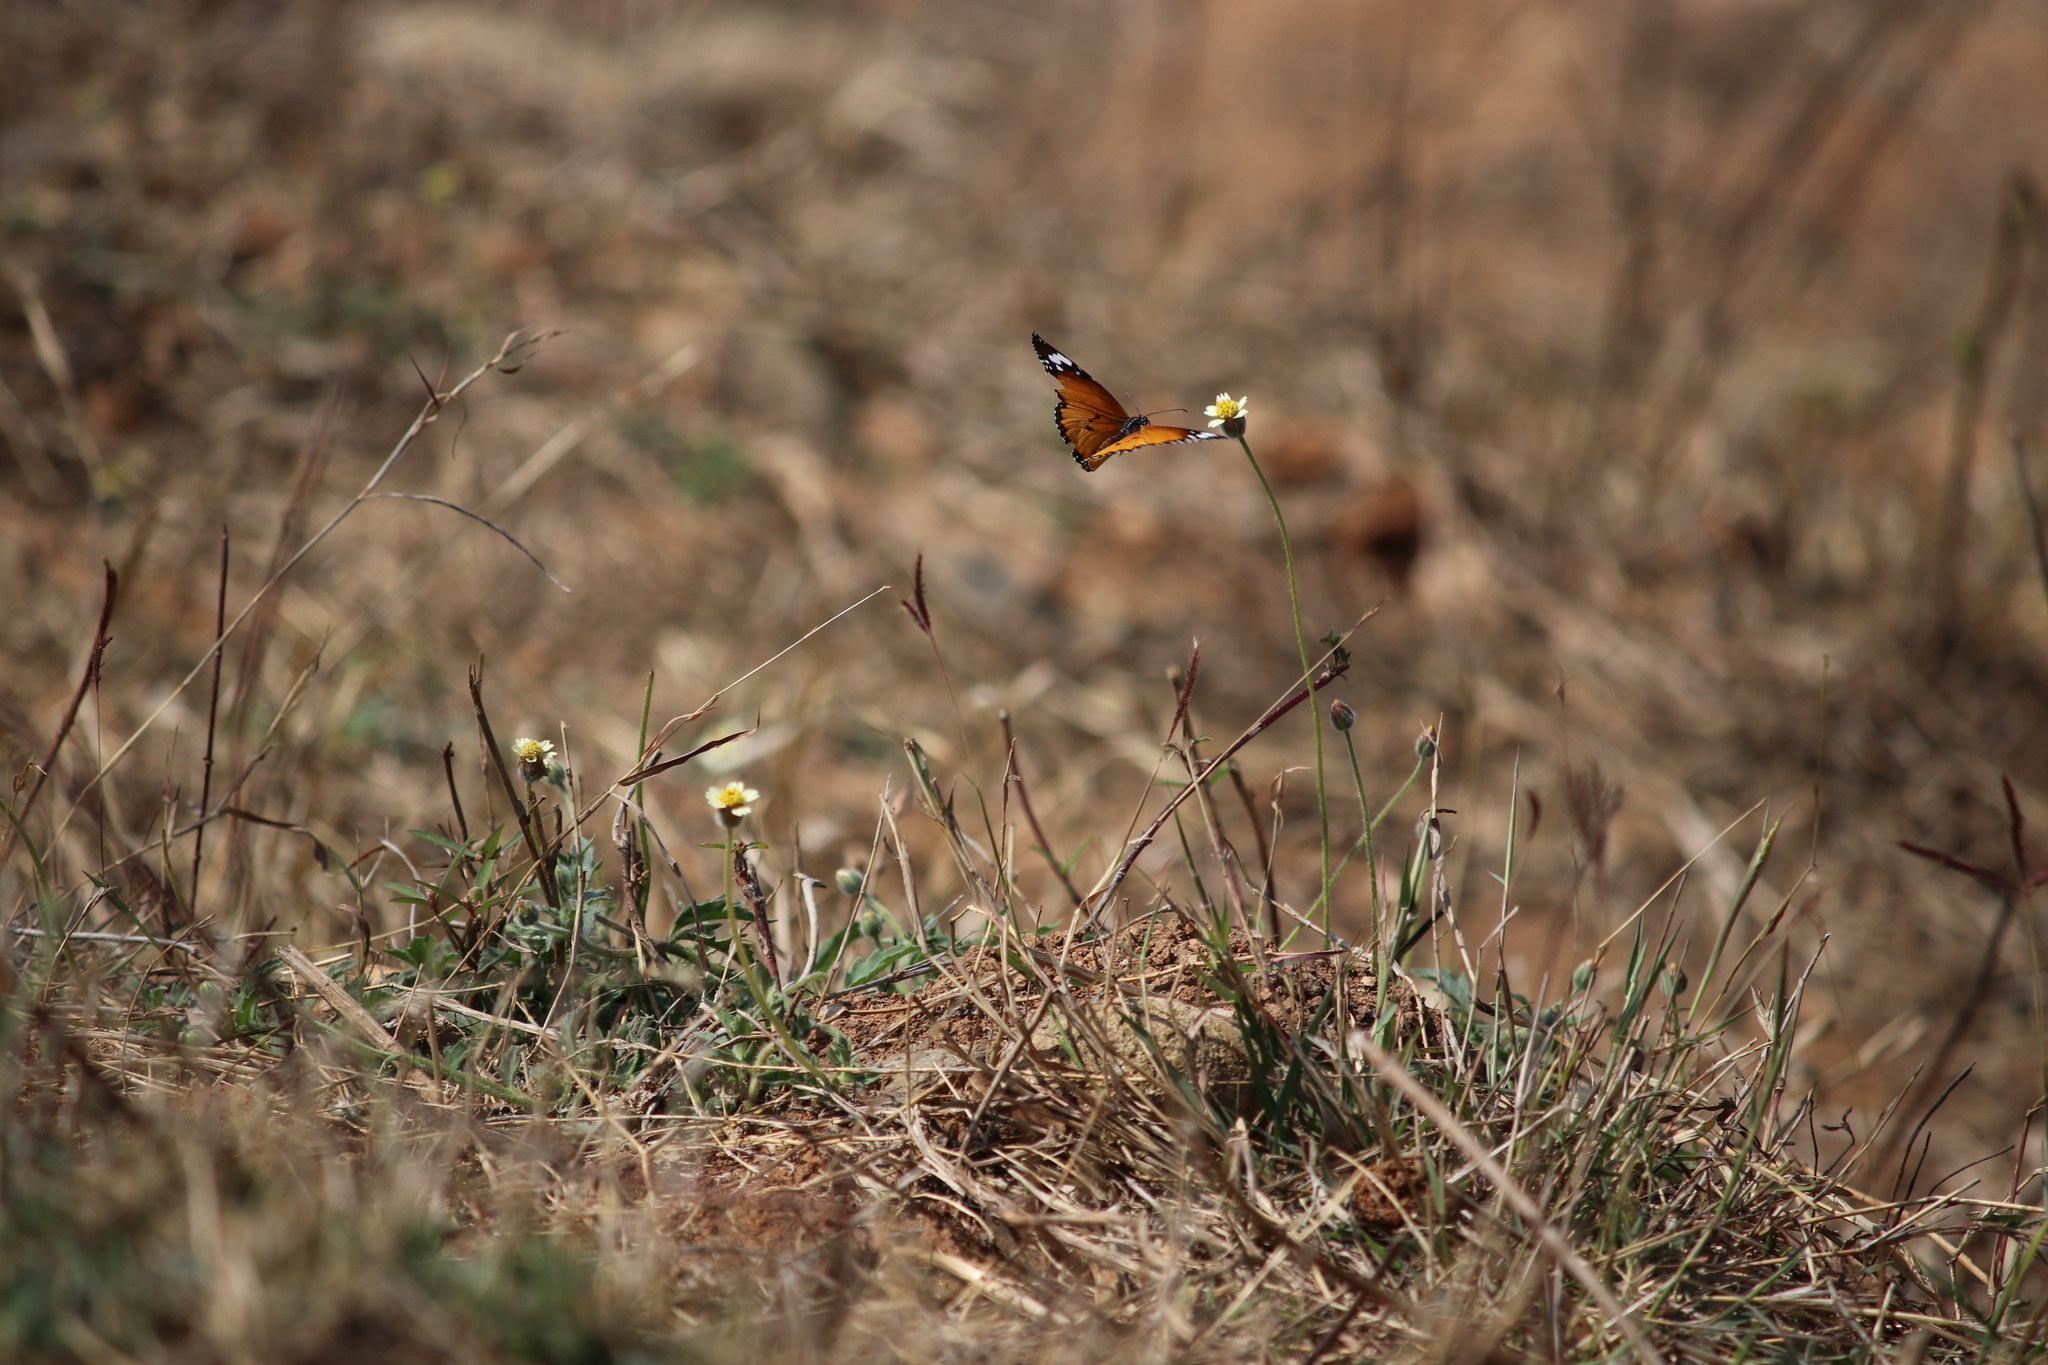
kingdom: Animalia
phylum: Arthropoda
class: Insecta
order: Lepidoptera
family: Nymphalidae
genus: Danaus
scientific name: Danaus chrysippus
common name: Plain tiger
